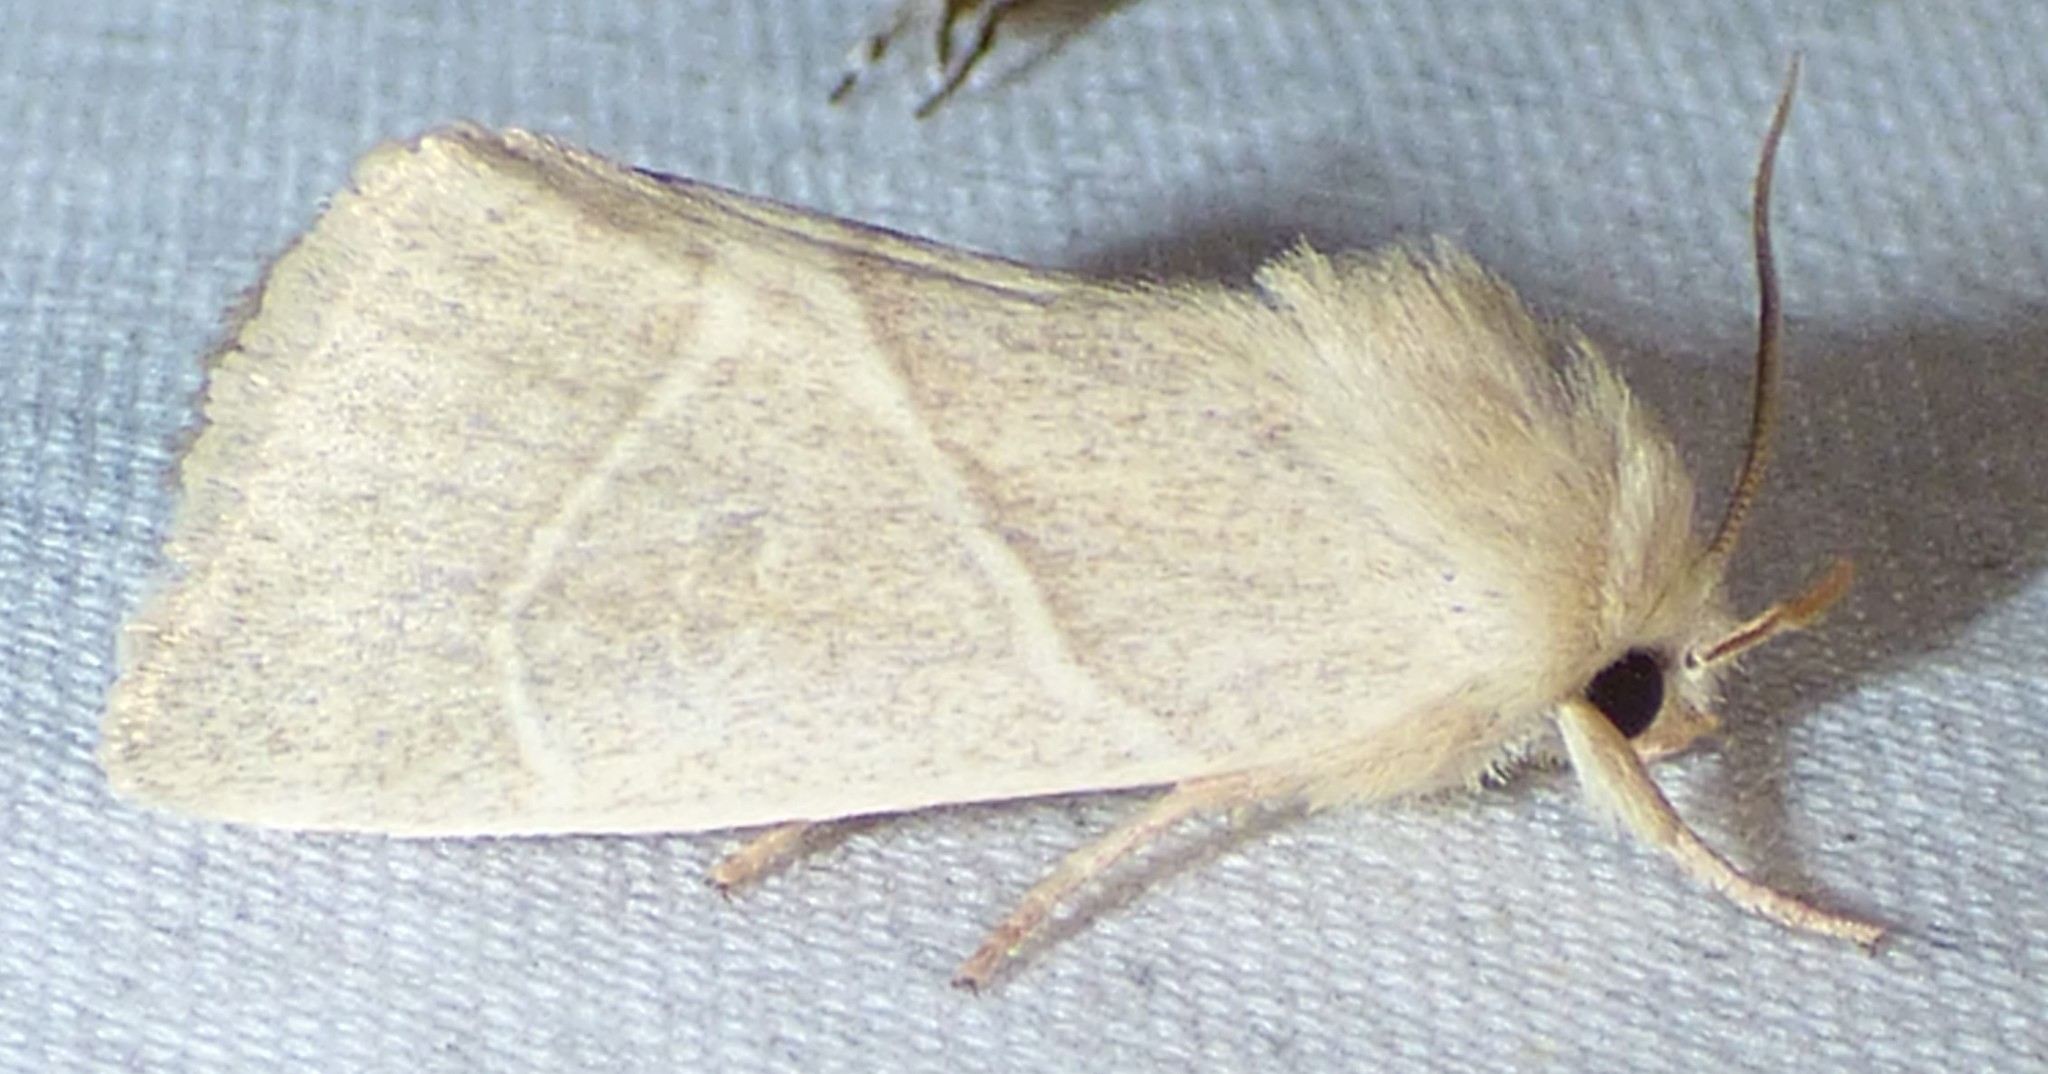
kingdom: Animalia
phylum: Arthropoda
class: Insecta
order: Lepidoptera
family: Noctuidae
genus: Cosmia
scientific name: Cosmia calami
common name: American dun-bar moth
